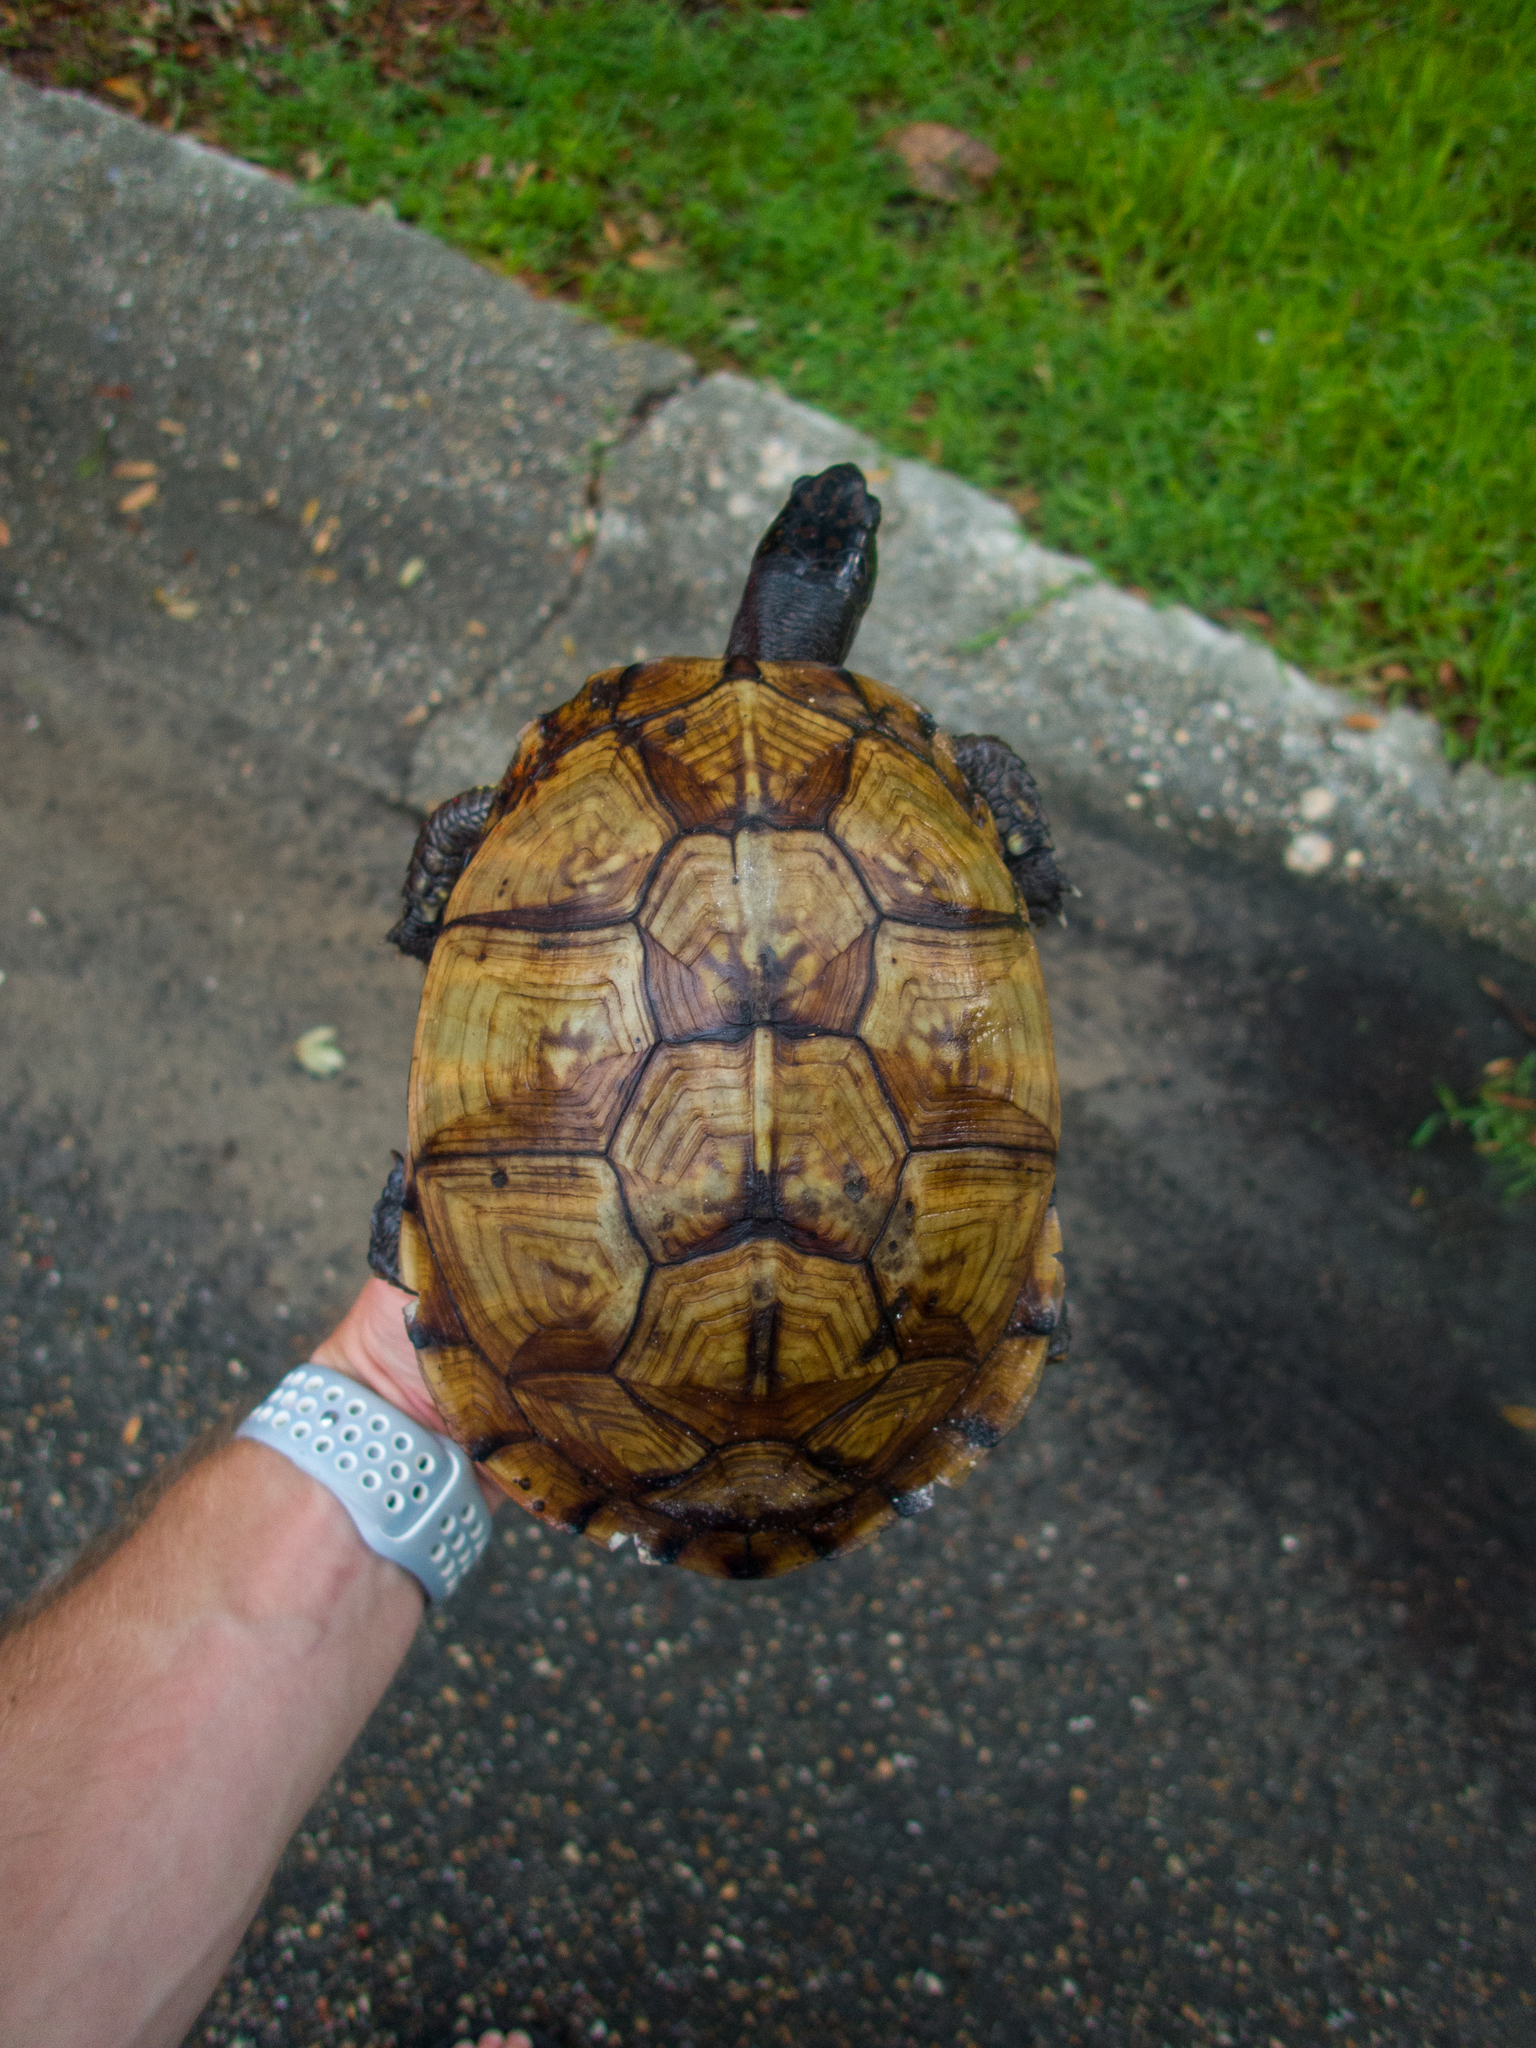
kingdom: Animalia
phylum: Chordata
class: Testudines
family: Emydidae
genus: Terrapene
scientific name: Terrapene carolina
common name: Common box turtle
